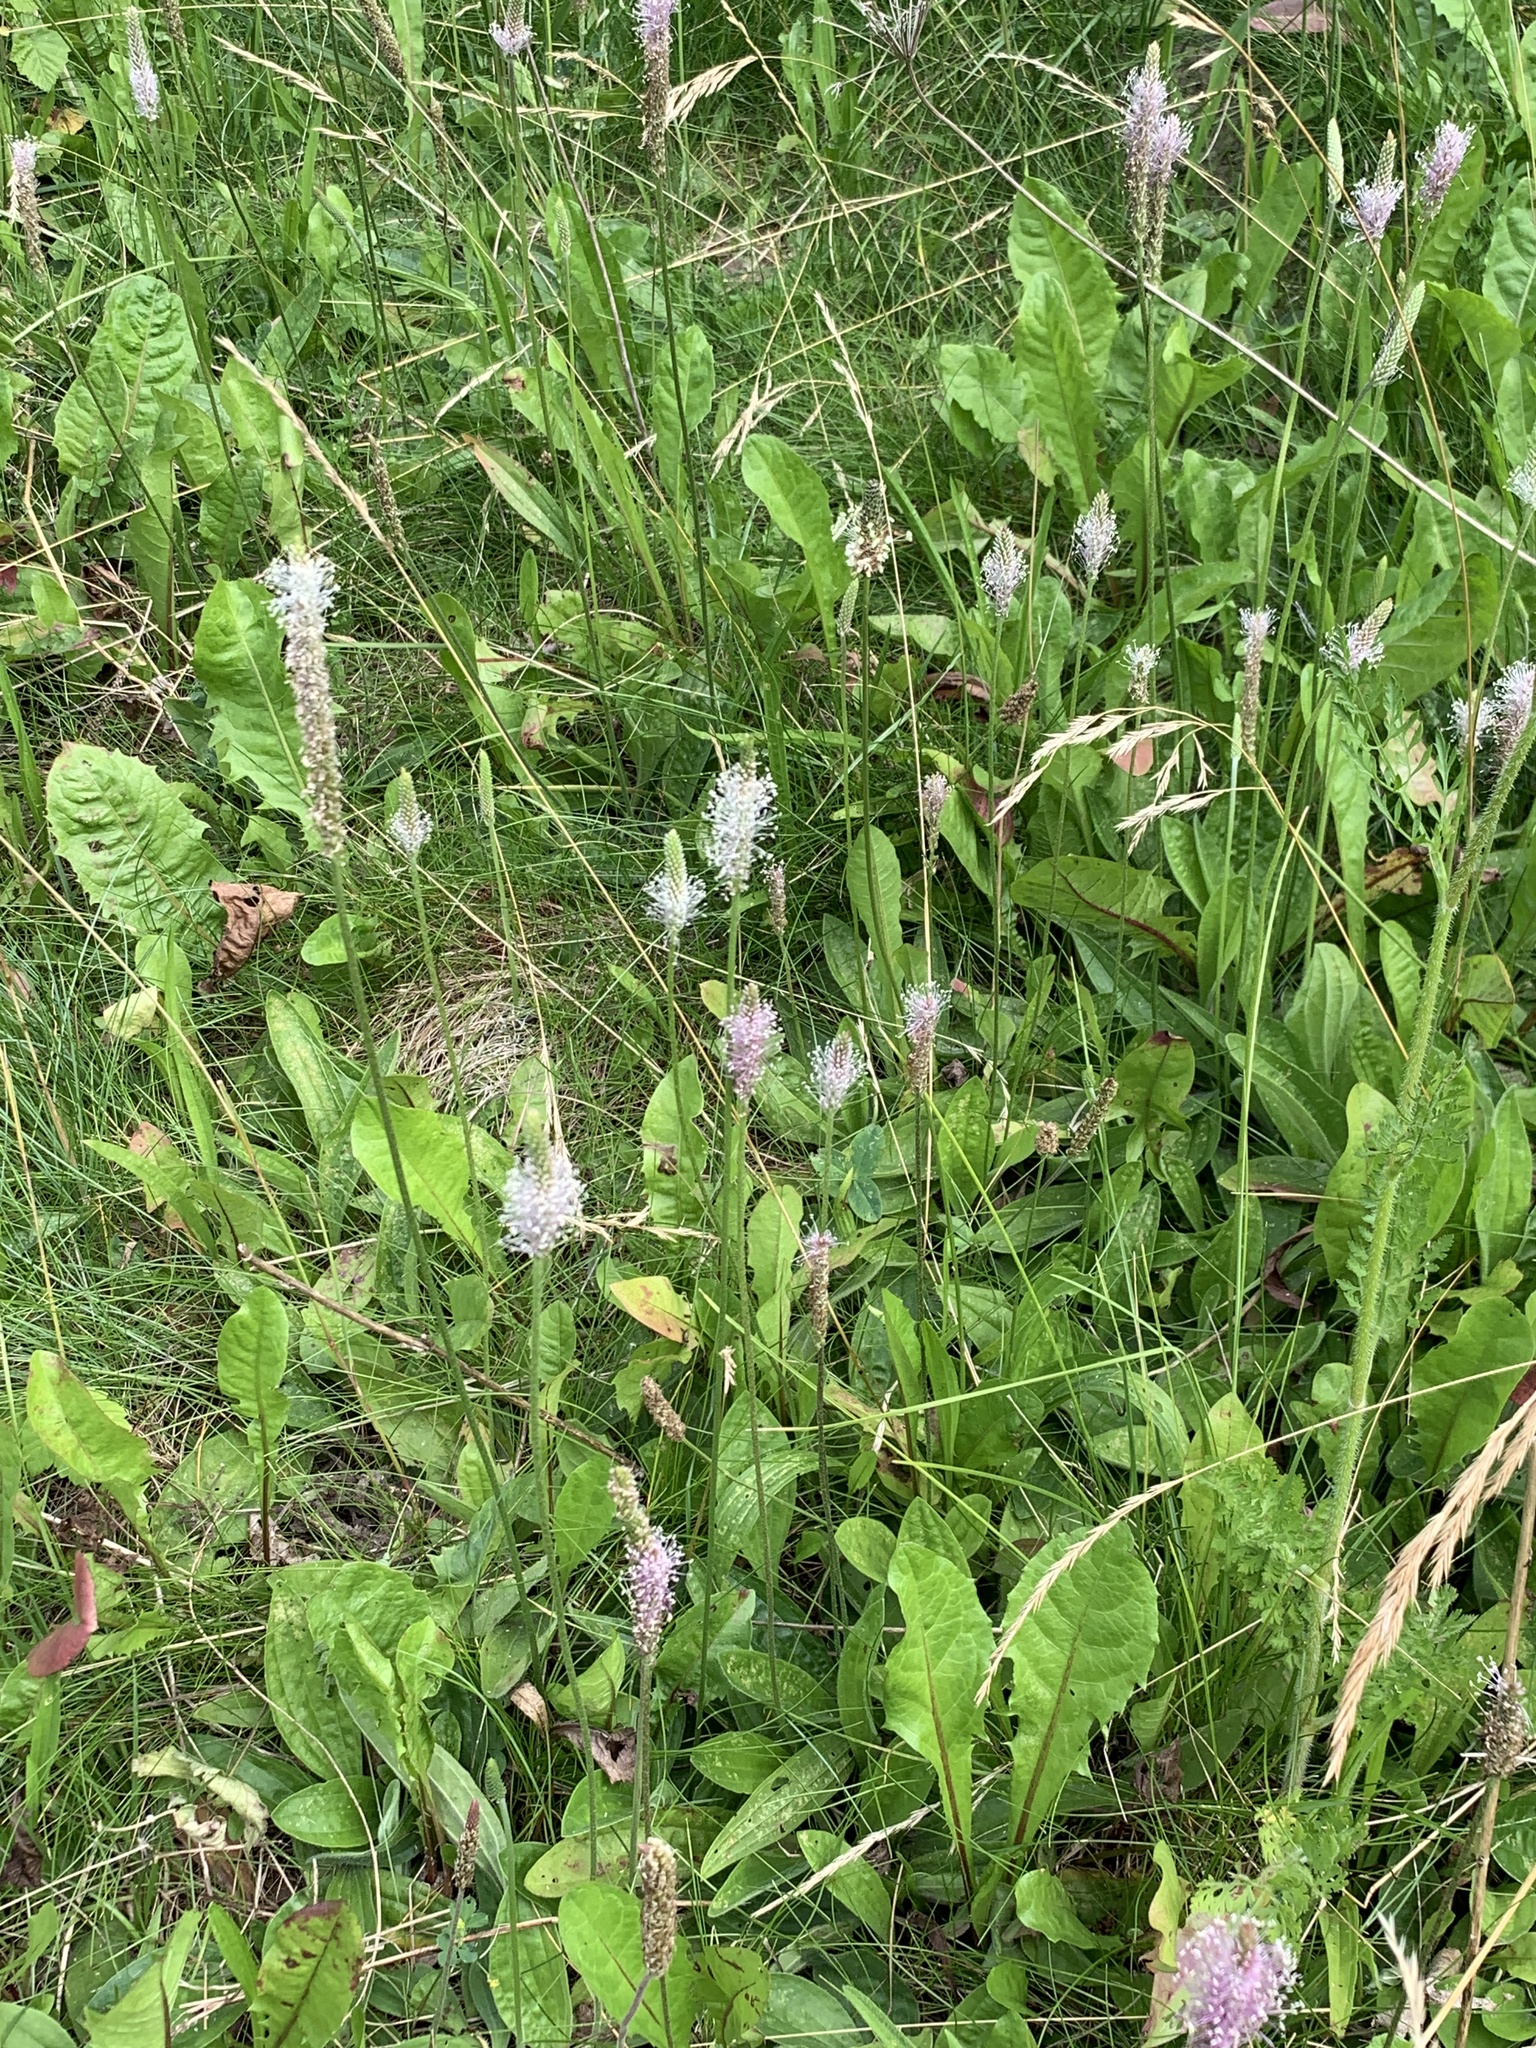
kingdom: Plantae
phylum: Tracheophyta
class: Magnoliopsida
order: Lamiales
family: Plantaginaceae
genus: Plantago
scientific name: Plantago media
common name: Hoary plantain
